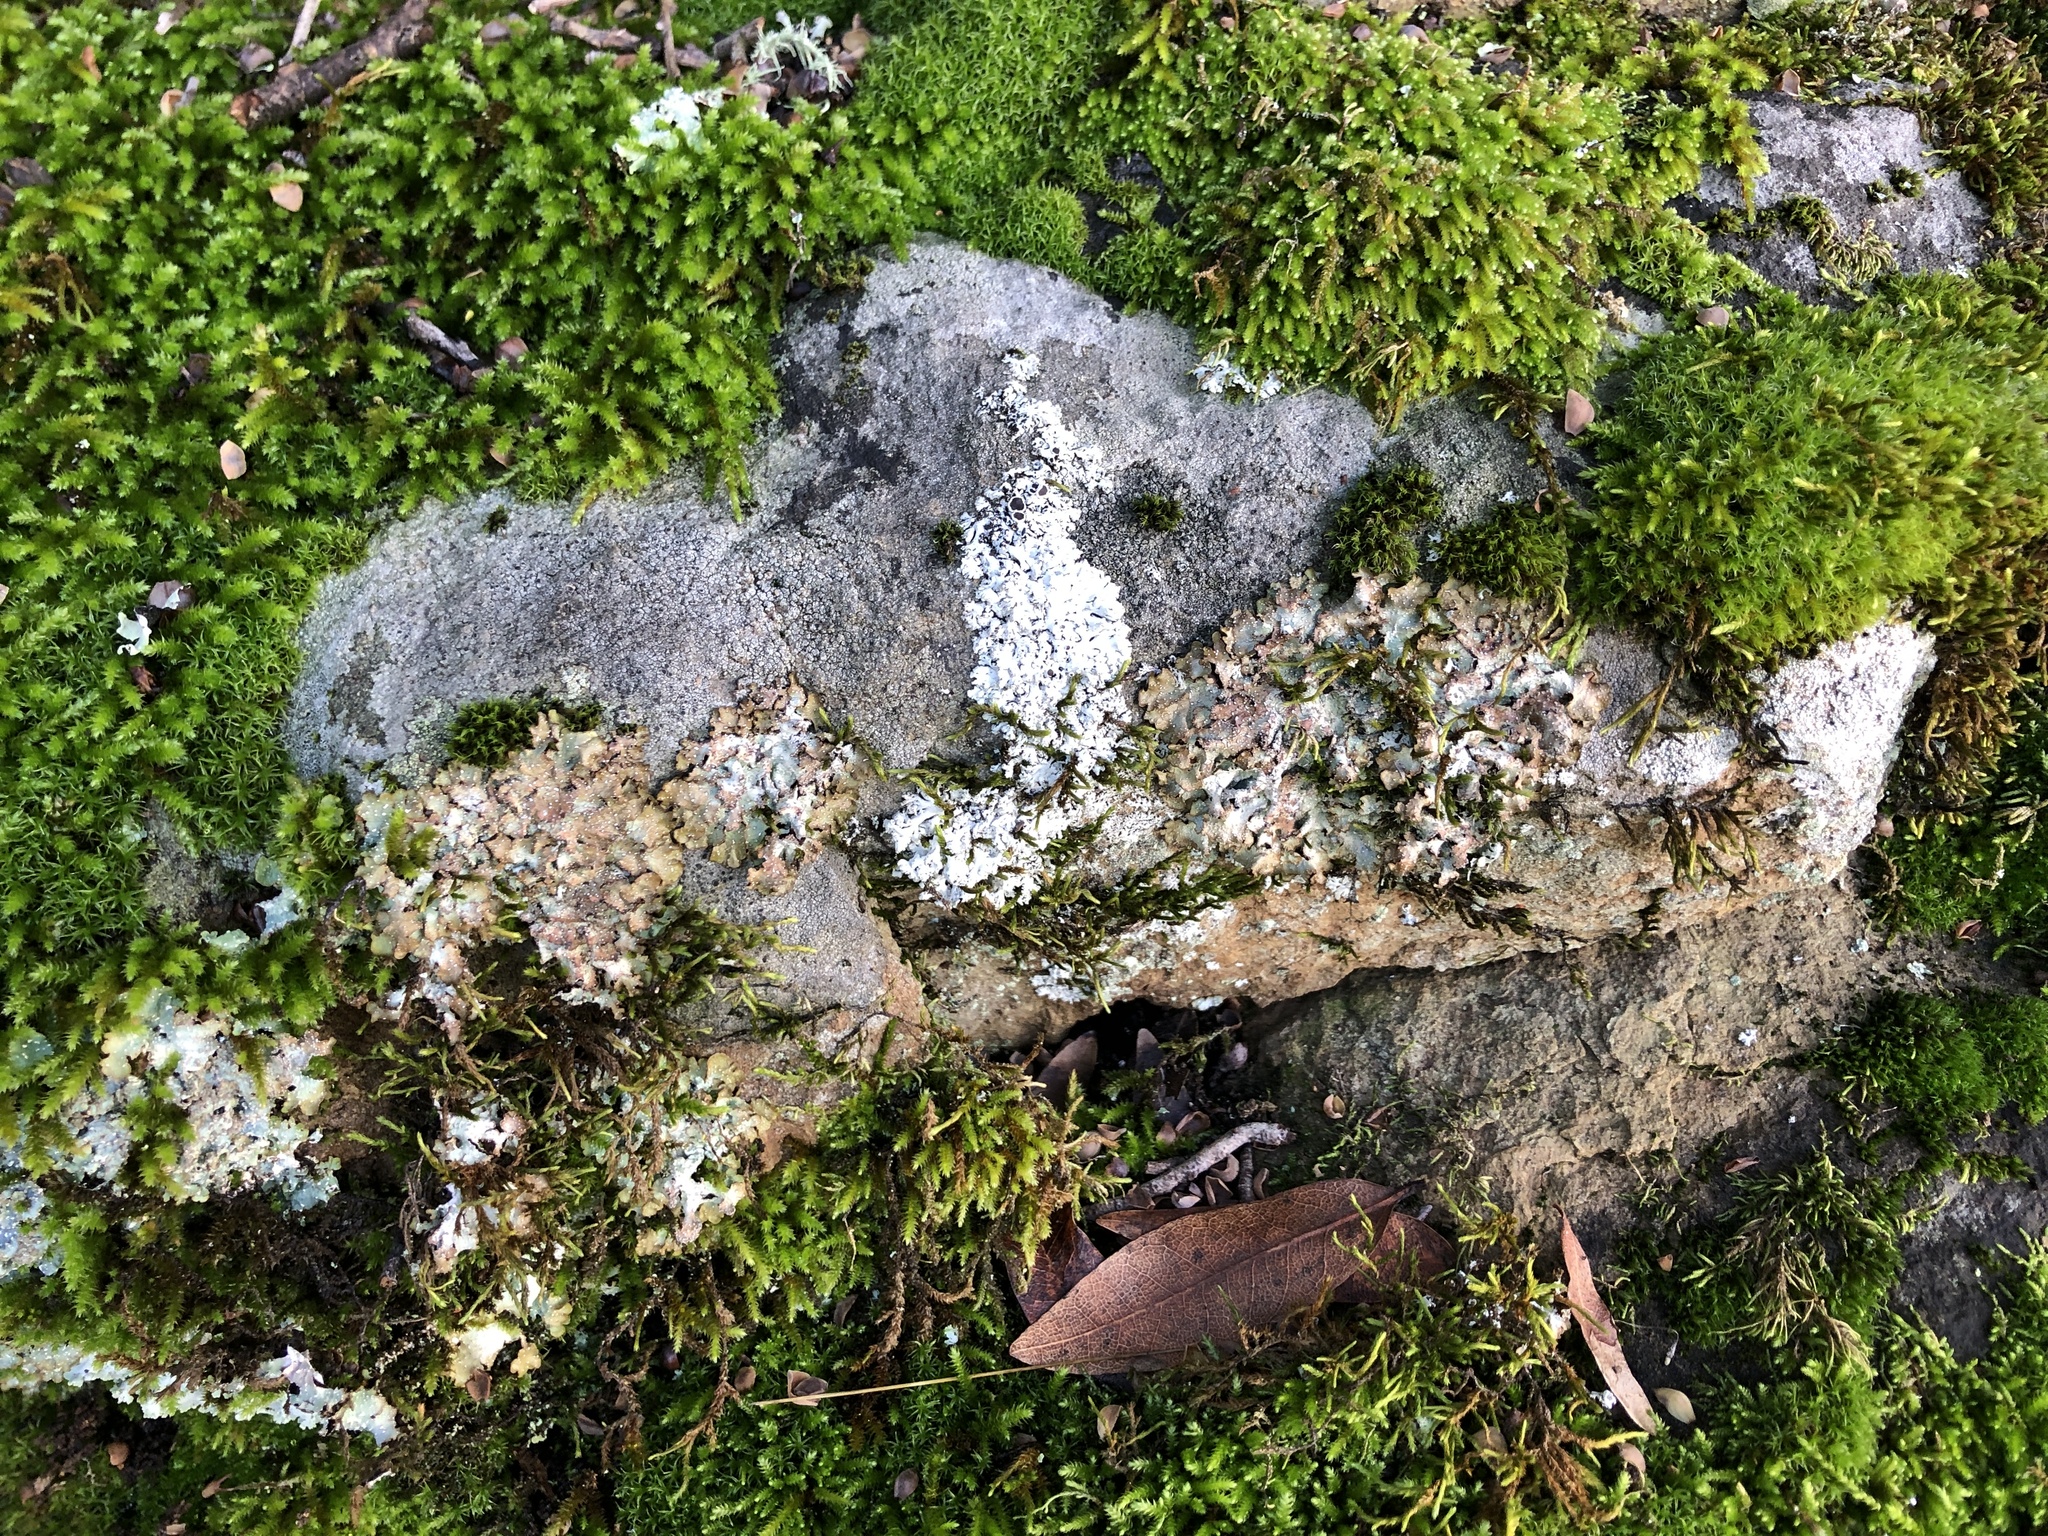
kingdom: Fungi
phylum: Ascomycota
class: Lecanoromycetes
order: Lecanorales
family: Parmeliaceae
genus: Punctelia
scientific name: Punctelia stictica
